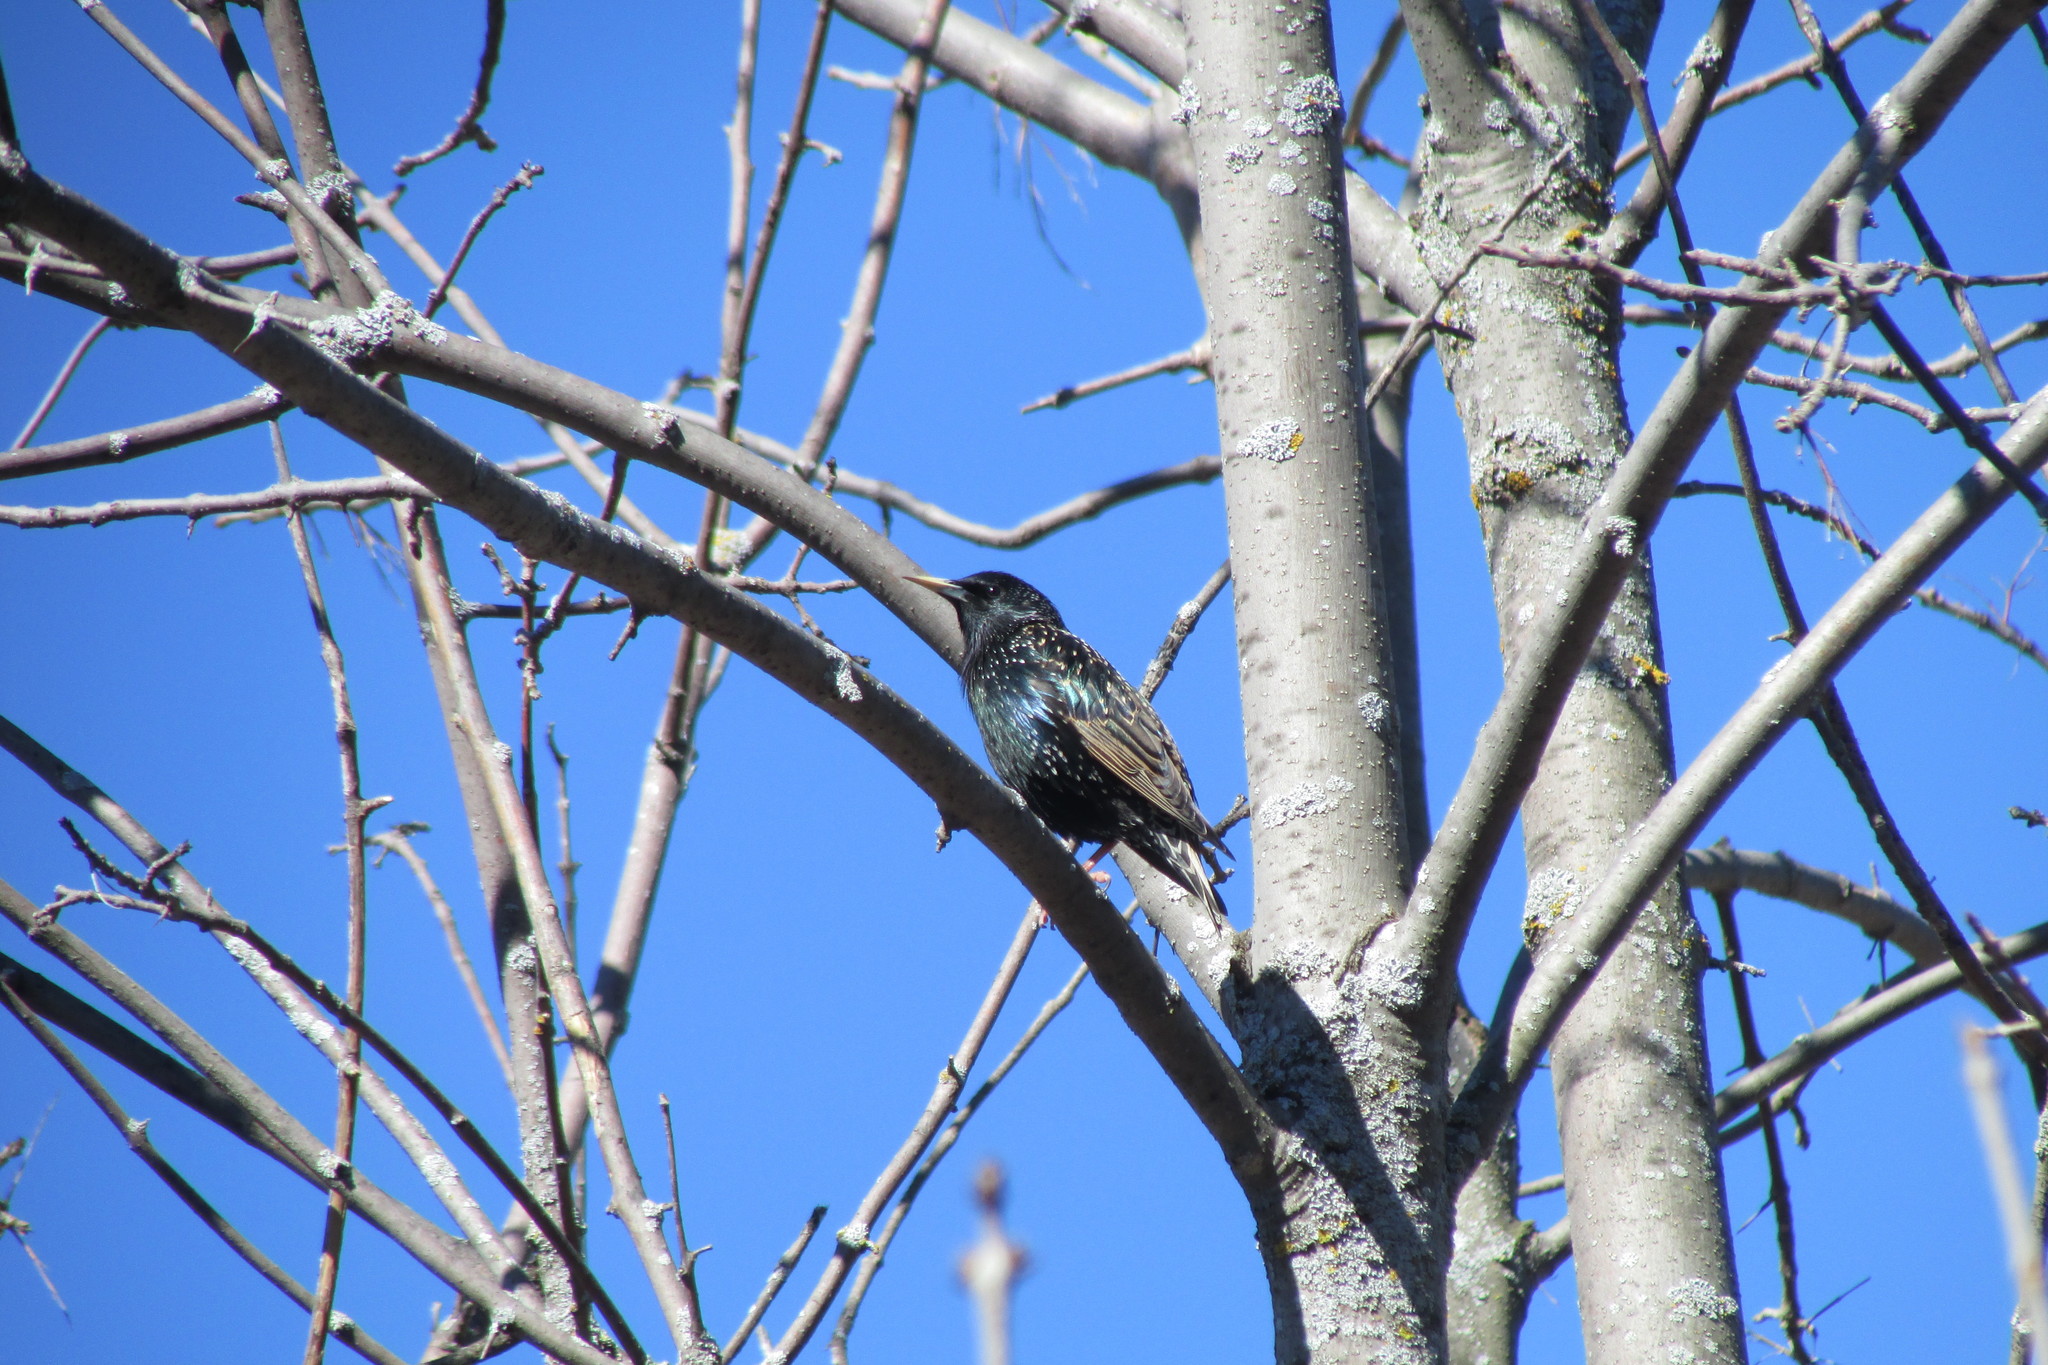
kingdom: Animalia
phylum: Chordata
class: Aves
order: Passeriformes
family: Sturnidae
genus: Sturnus
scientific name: Sturnus vulgaris
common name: Common starling
